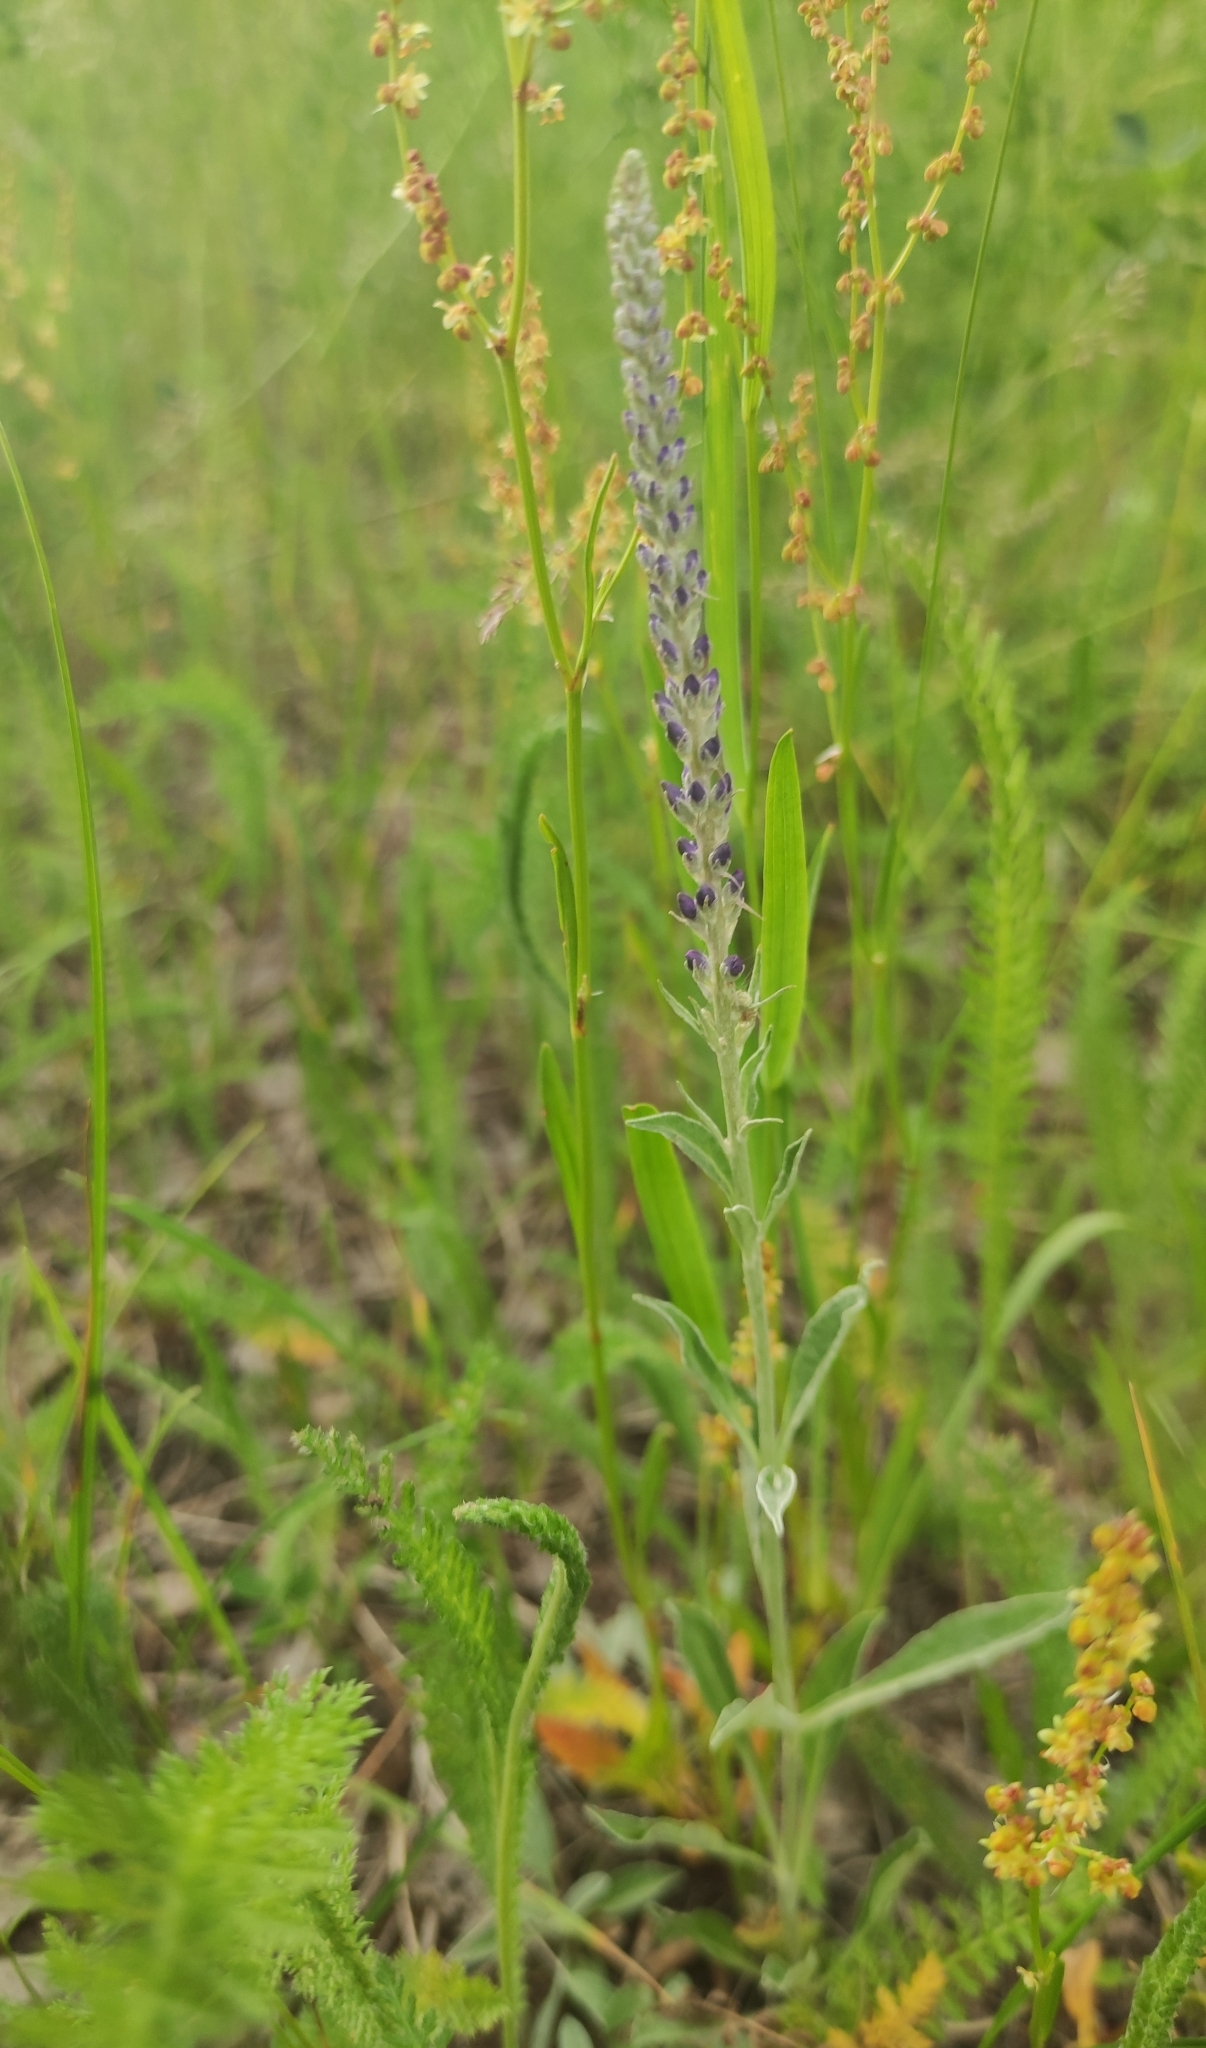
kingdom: Plantae
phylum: Tracheophyta
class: Magnoliopsida
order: Lamiales
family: Plantaginaceae
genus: Veronica
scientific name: Veronica incana
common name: Silver speedwell
